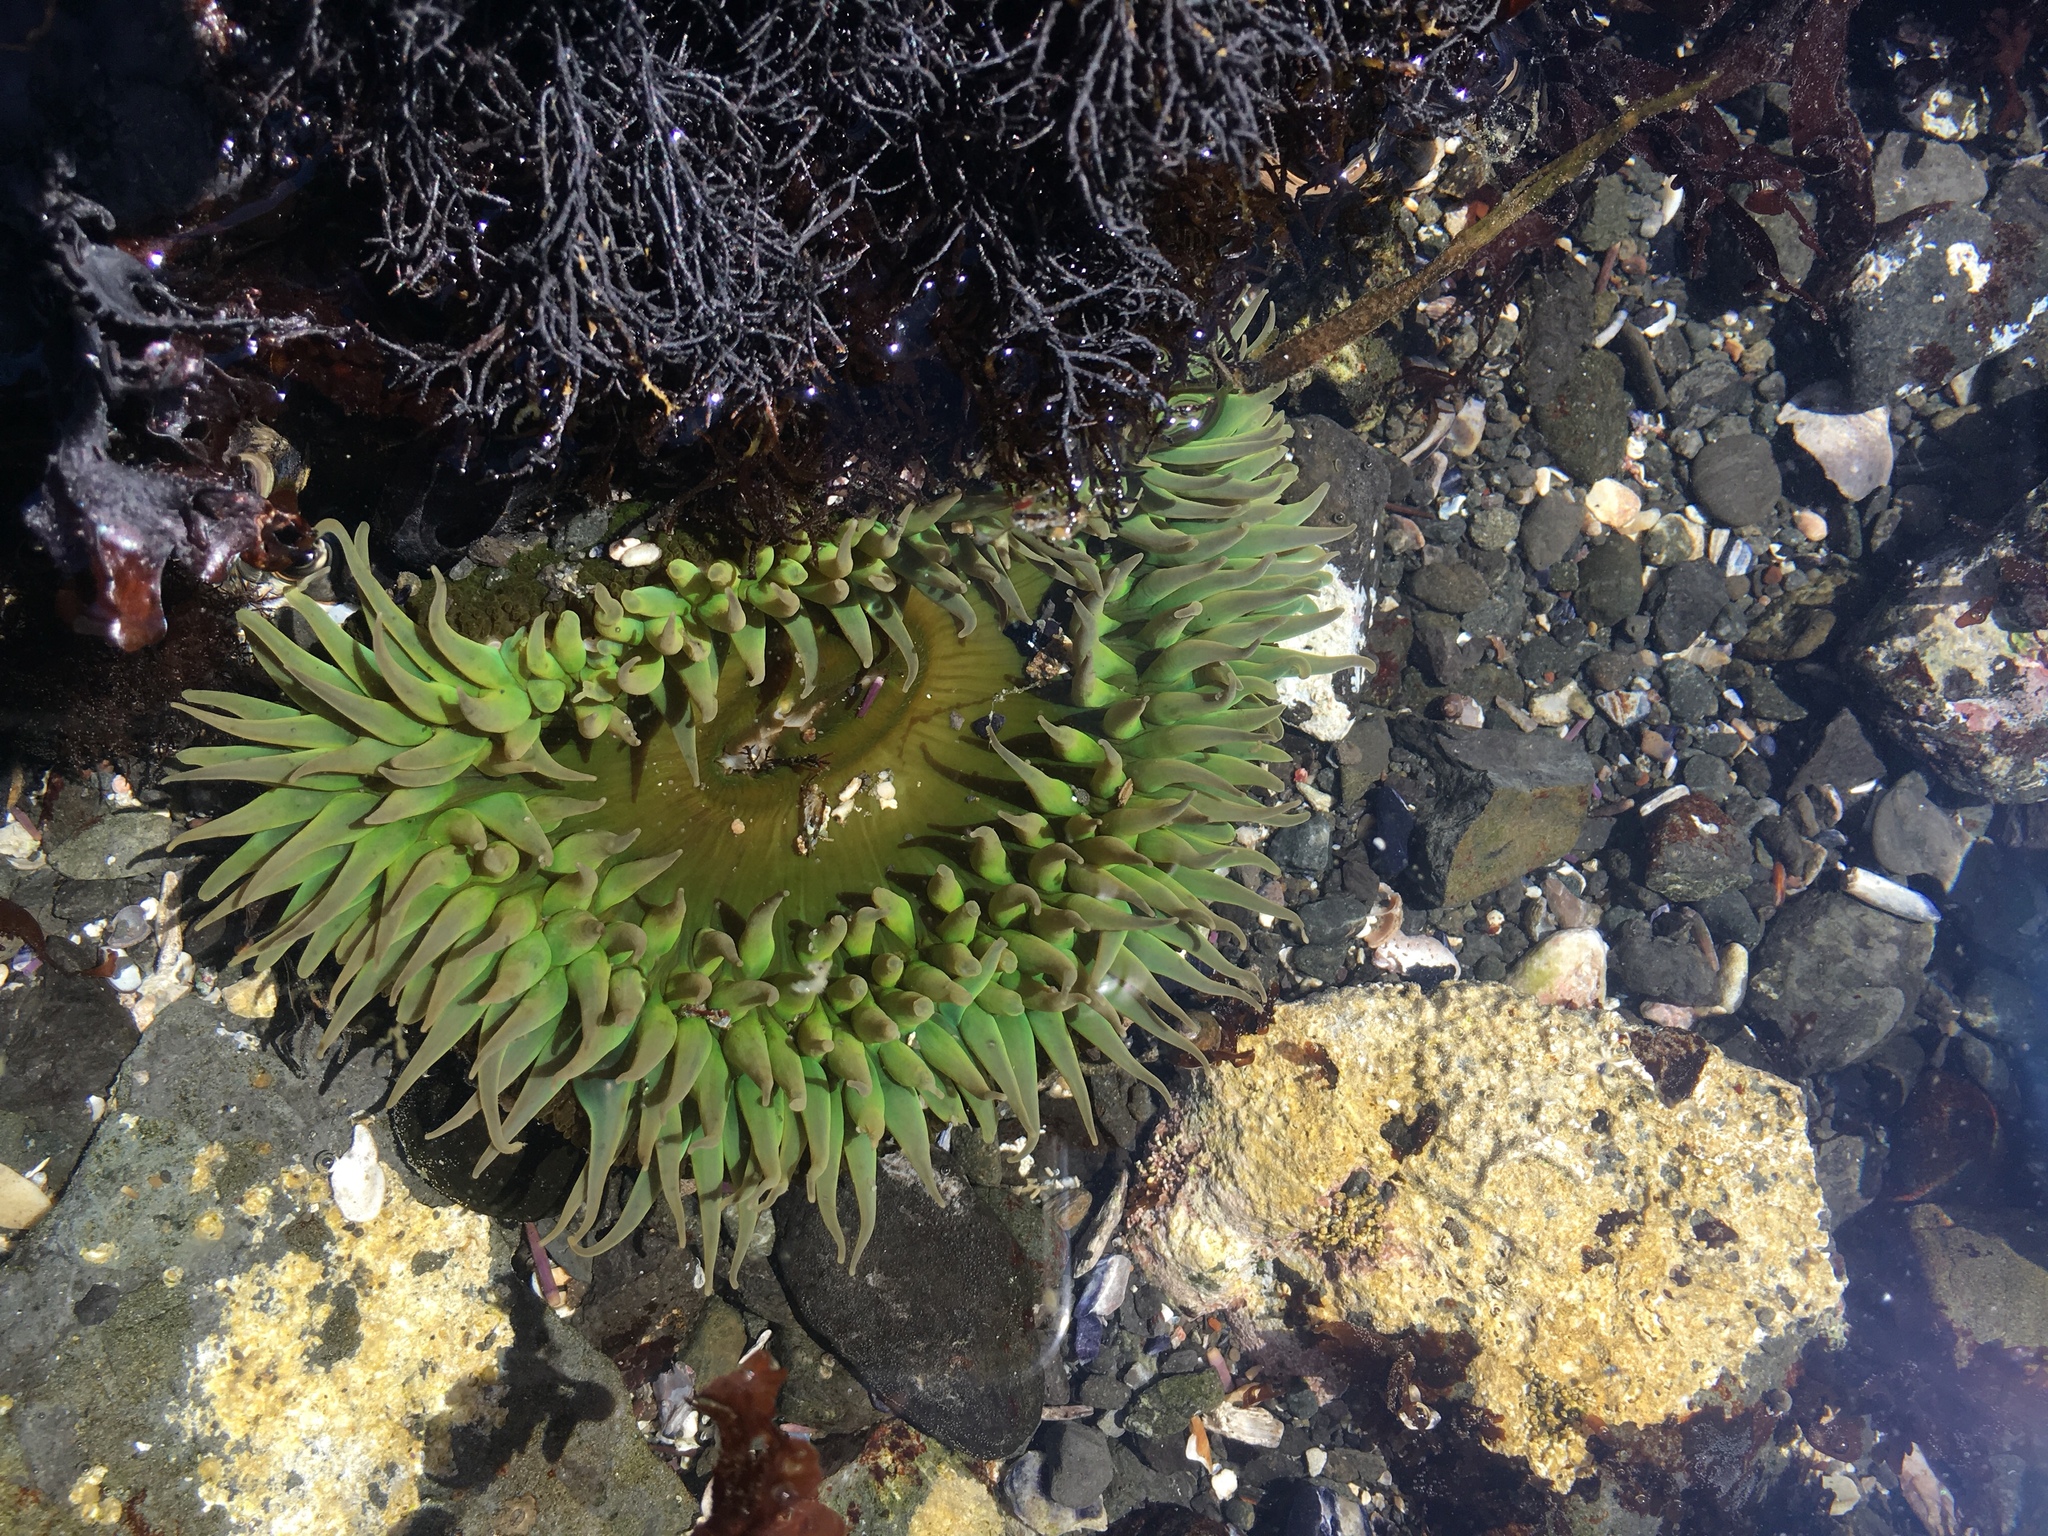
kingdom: Animalia
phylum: Cnidaria
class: Anthozoa
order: Actiniaria
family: Actiniidae
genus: Anthopleura
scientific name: Anthopleura xanthogrammica
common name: Giant green anemone
